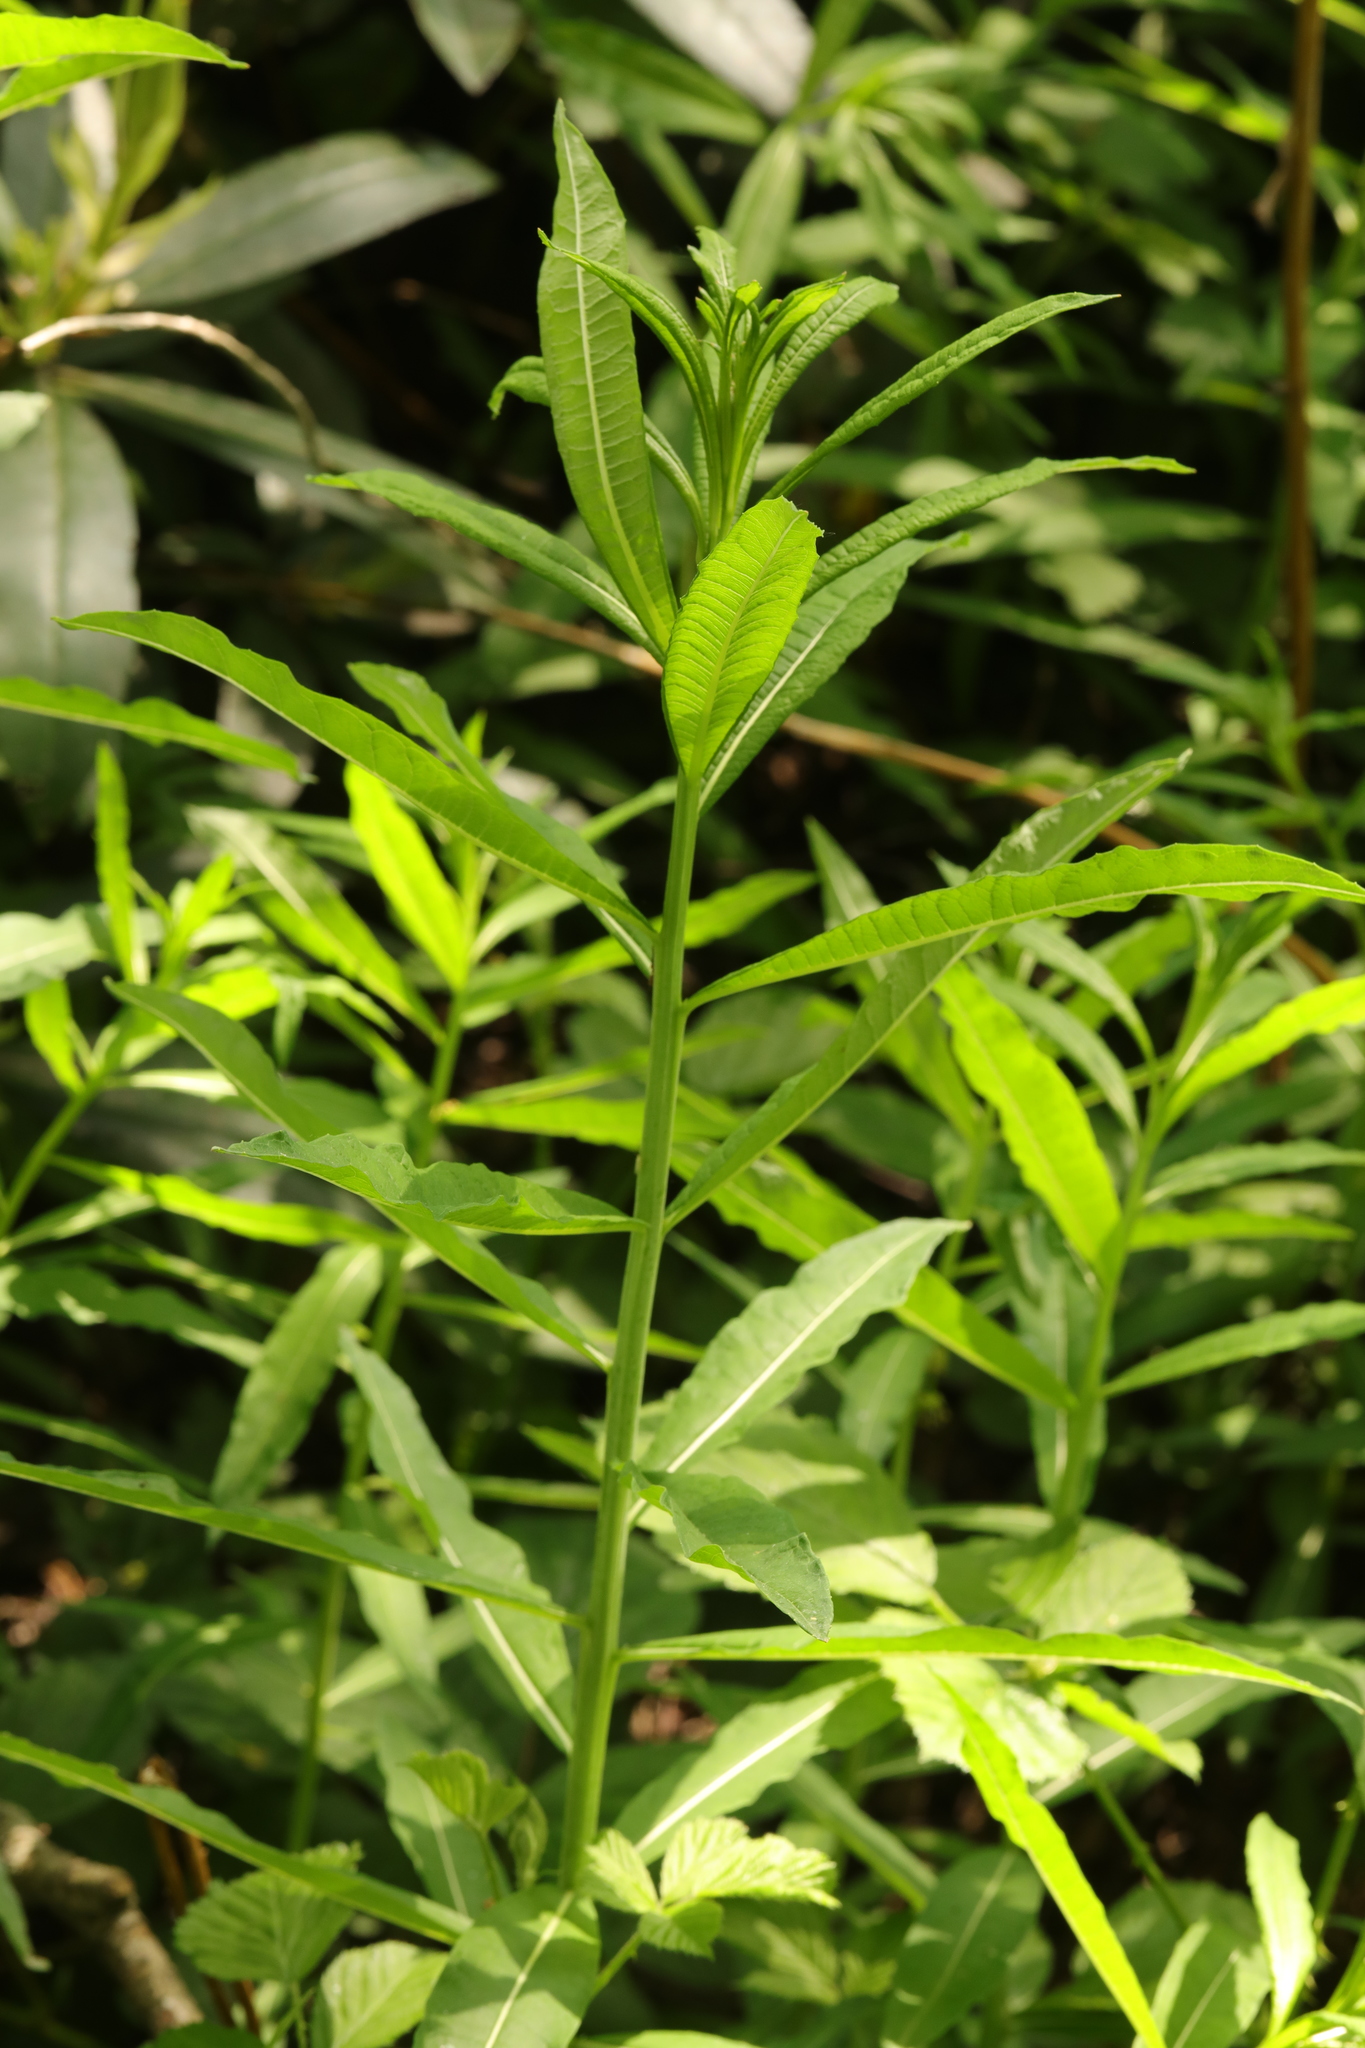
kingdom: Plantae
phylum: Tracheophyta
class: Magnoliopsida
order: Myrtales
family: Onagraceae
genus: Chamaenerion
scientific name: Chamaenerion angustifolium
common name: Fireweed
